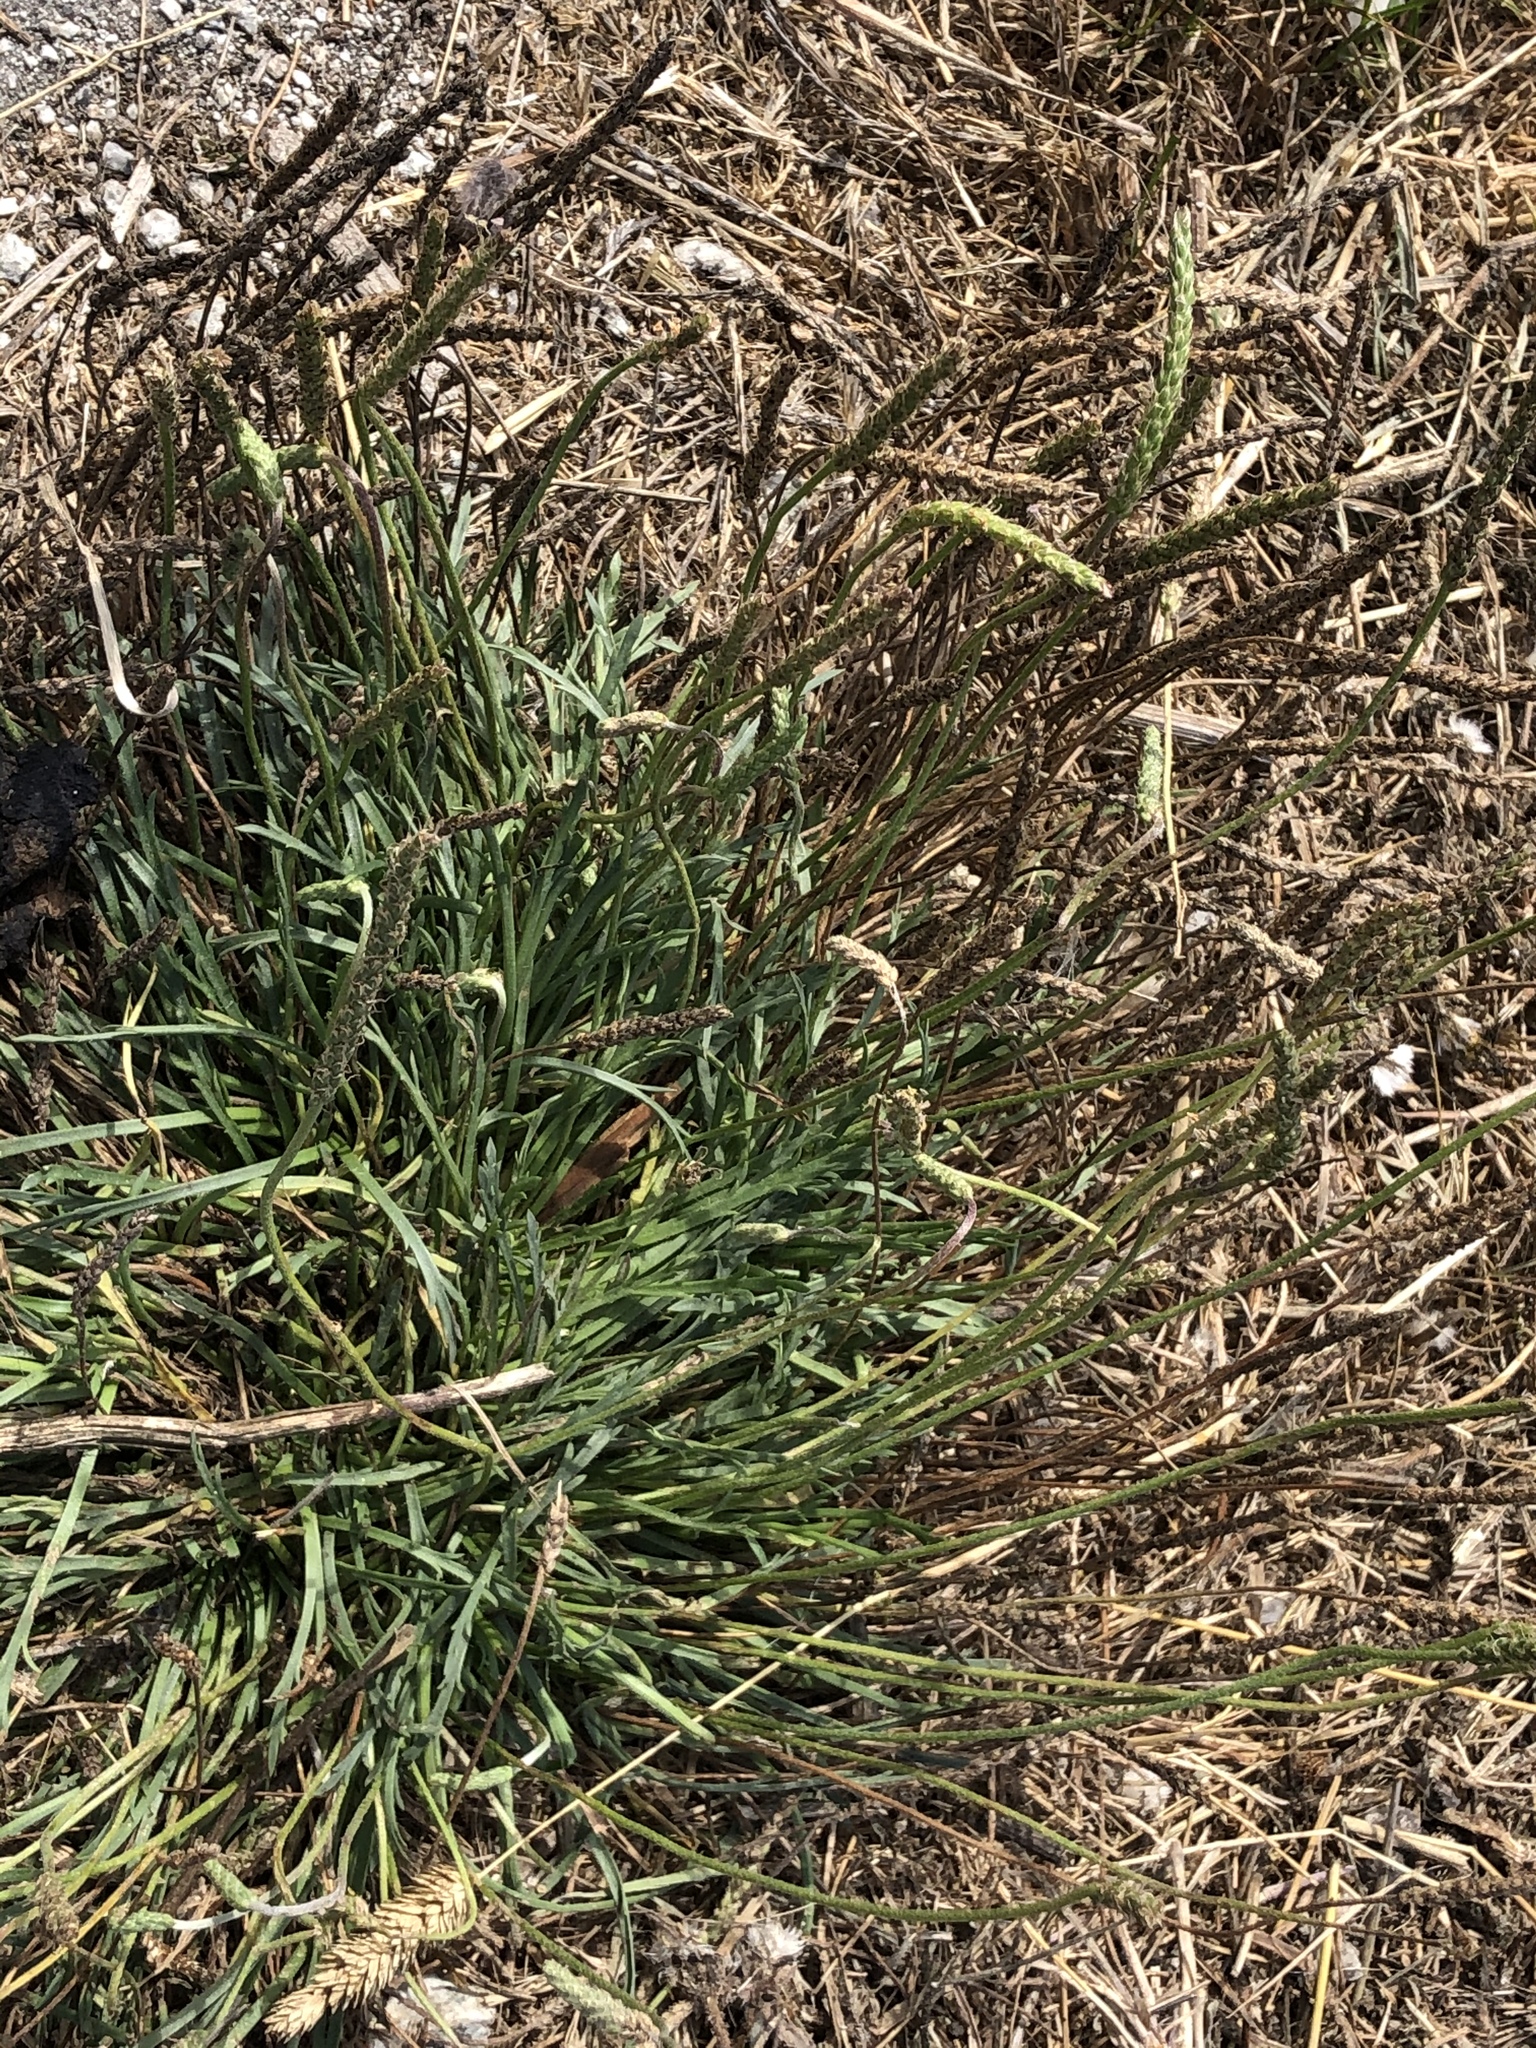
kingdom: Plantae
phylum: Tracheophyta
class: Magnoliopsida
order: Lamiales
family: Plantaginaceae
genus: Plantago
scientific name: Plantago coronopus
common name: Buck's-horn plantain
